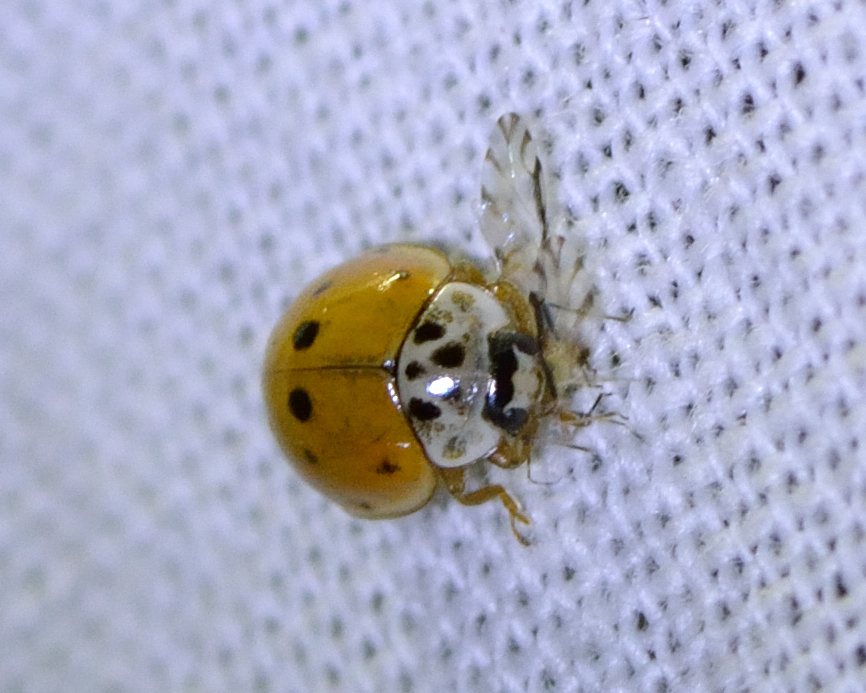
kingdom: Animalia
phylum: Arthropoda
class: Insecta
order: Coleoptera
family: Coccinellidae
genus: Adalia
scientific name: Adalia decempunctata
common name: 10-spot ladybird
